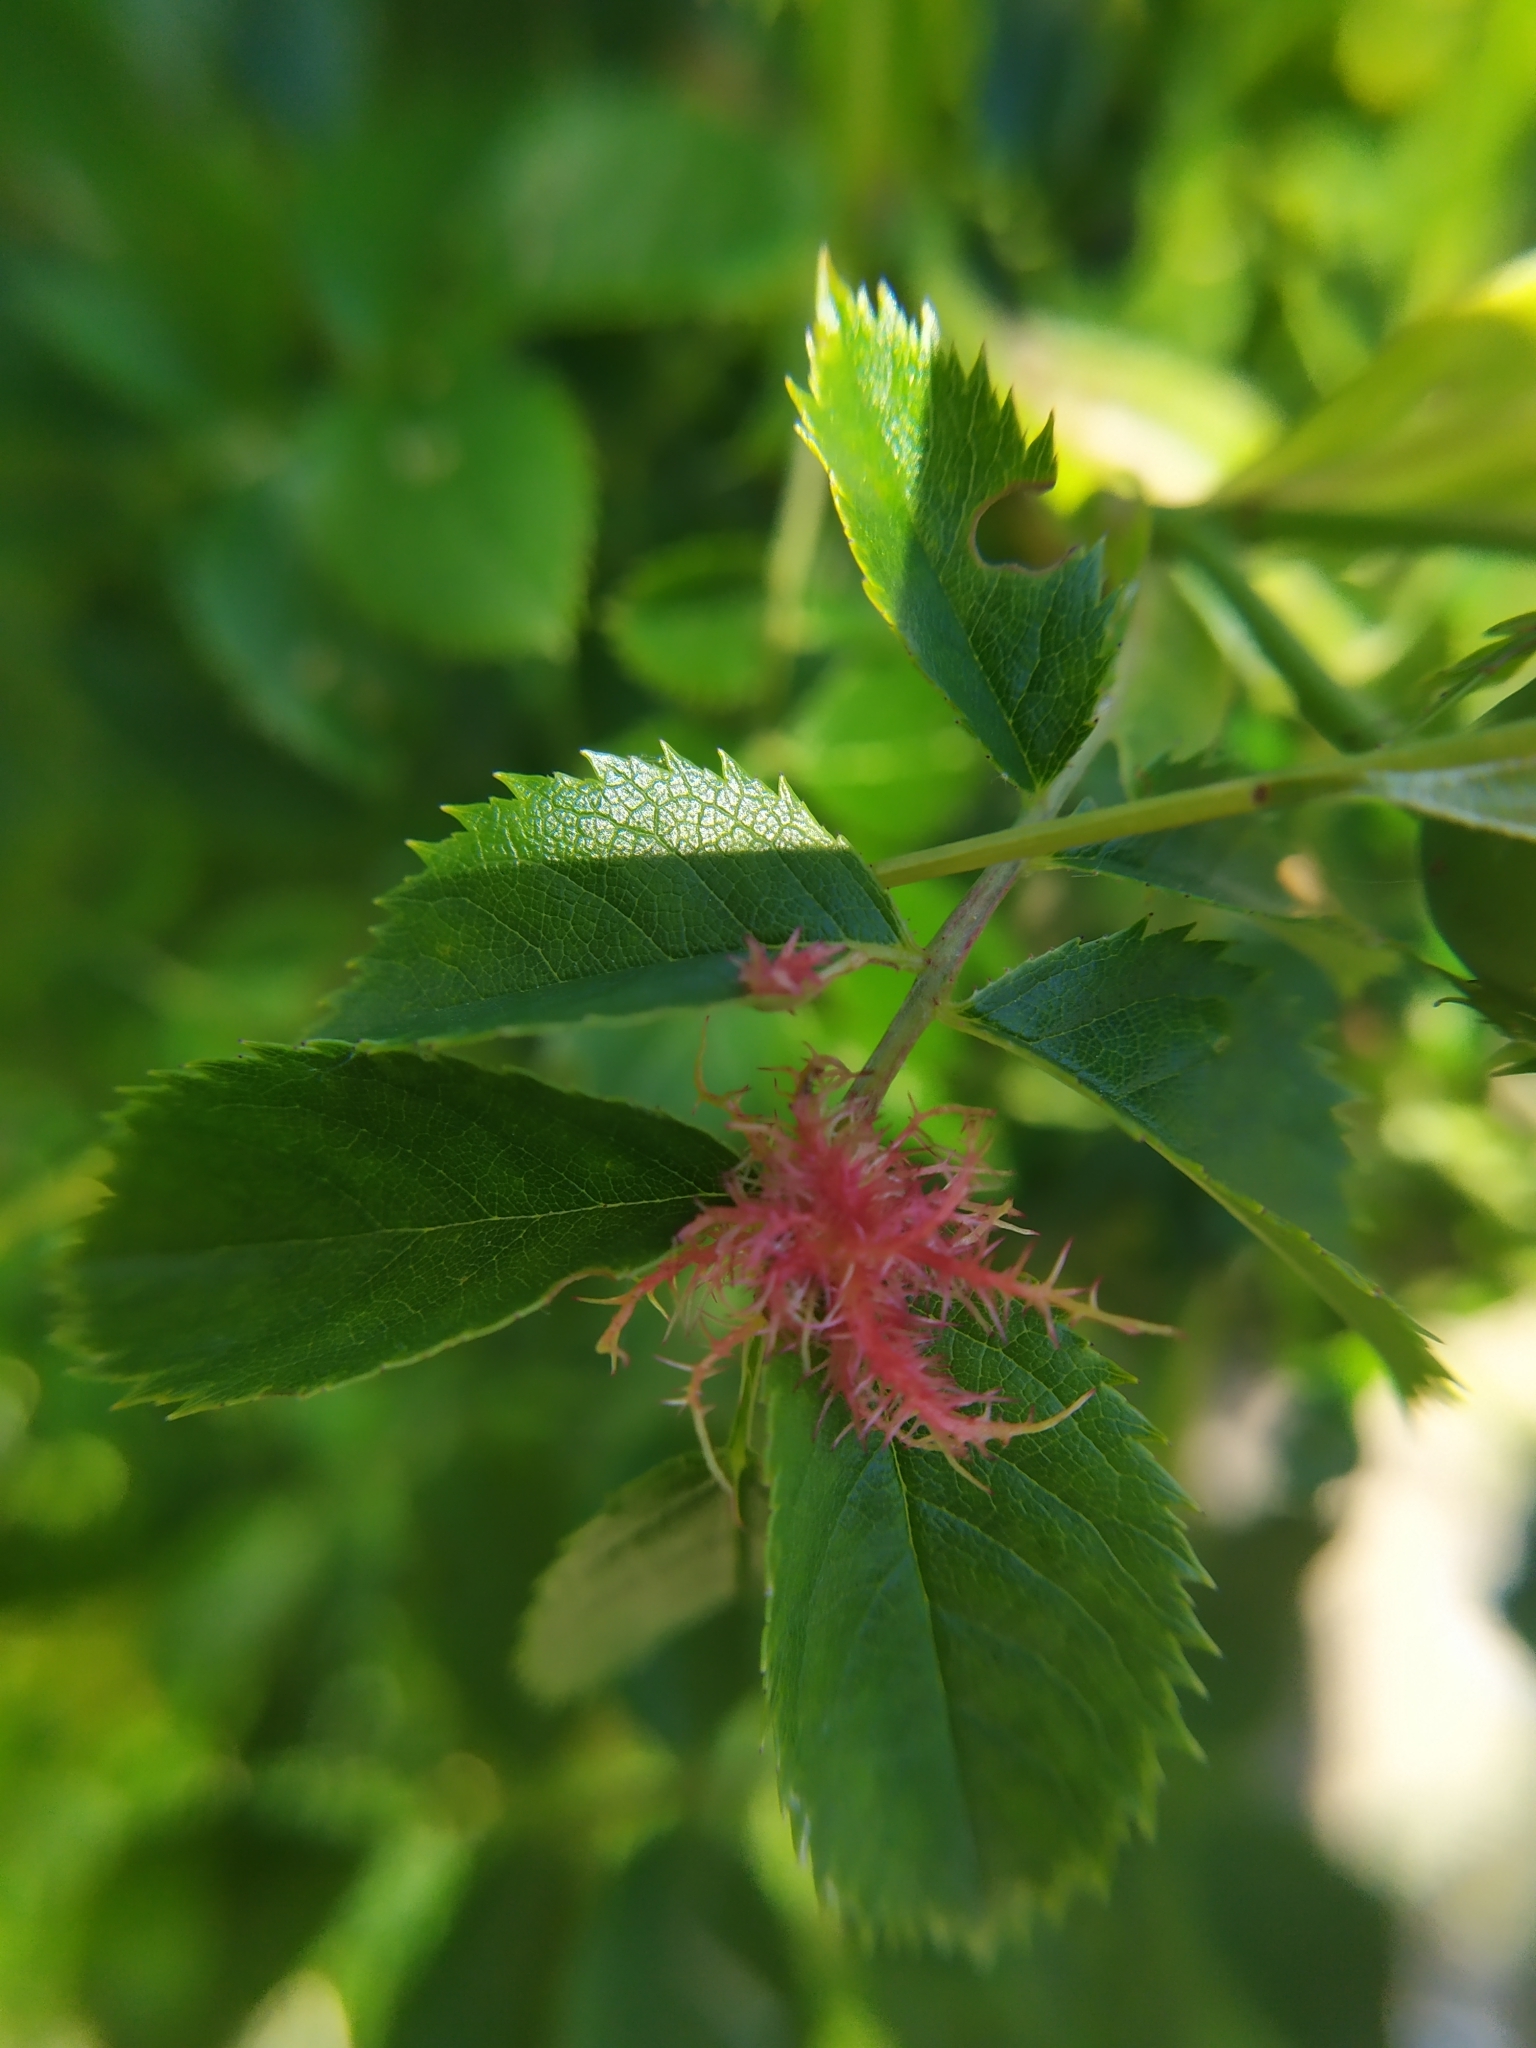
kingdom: Animalia
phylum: Arthropoda
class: Insecta
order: Hymenoptera
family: Cynipidae
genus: Diplolepis
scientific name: Diplolepis rosae
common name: Bedeguar gall
